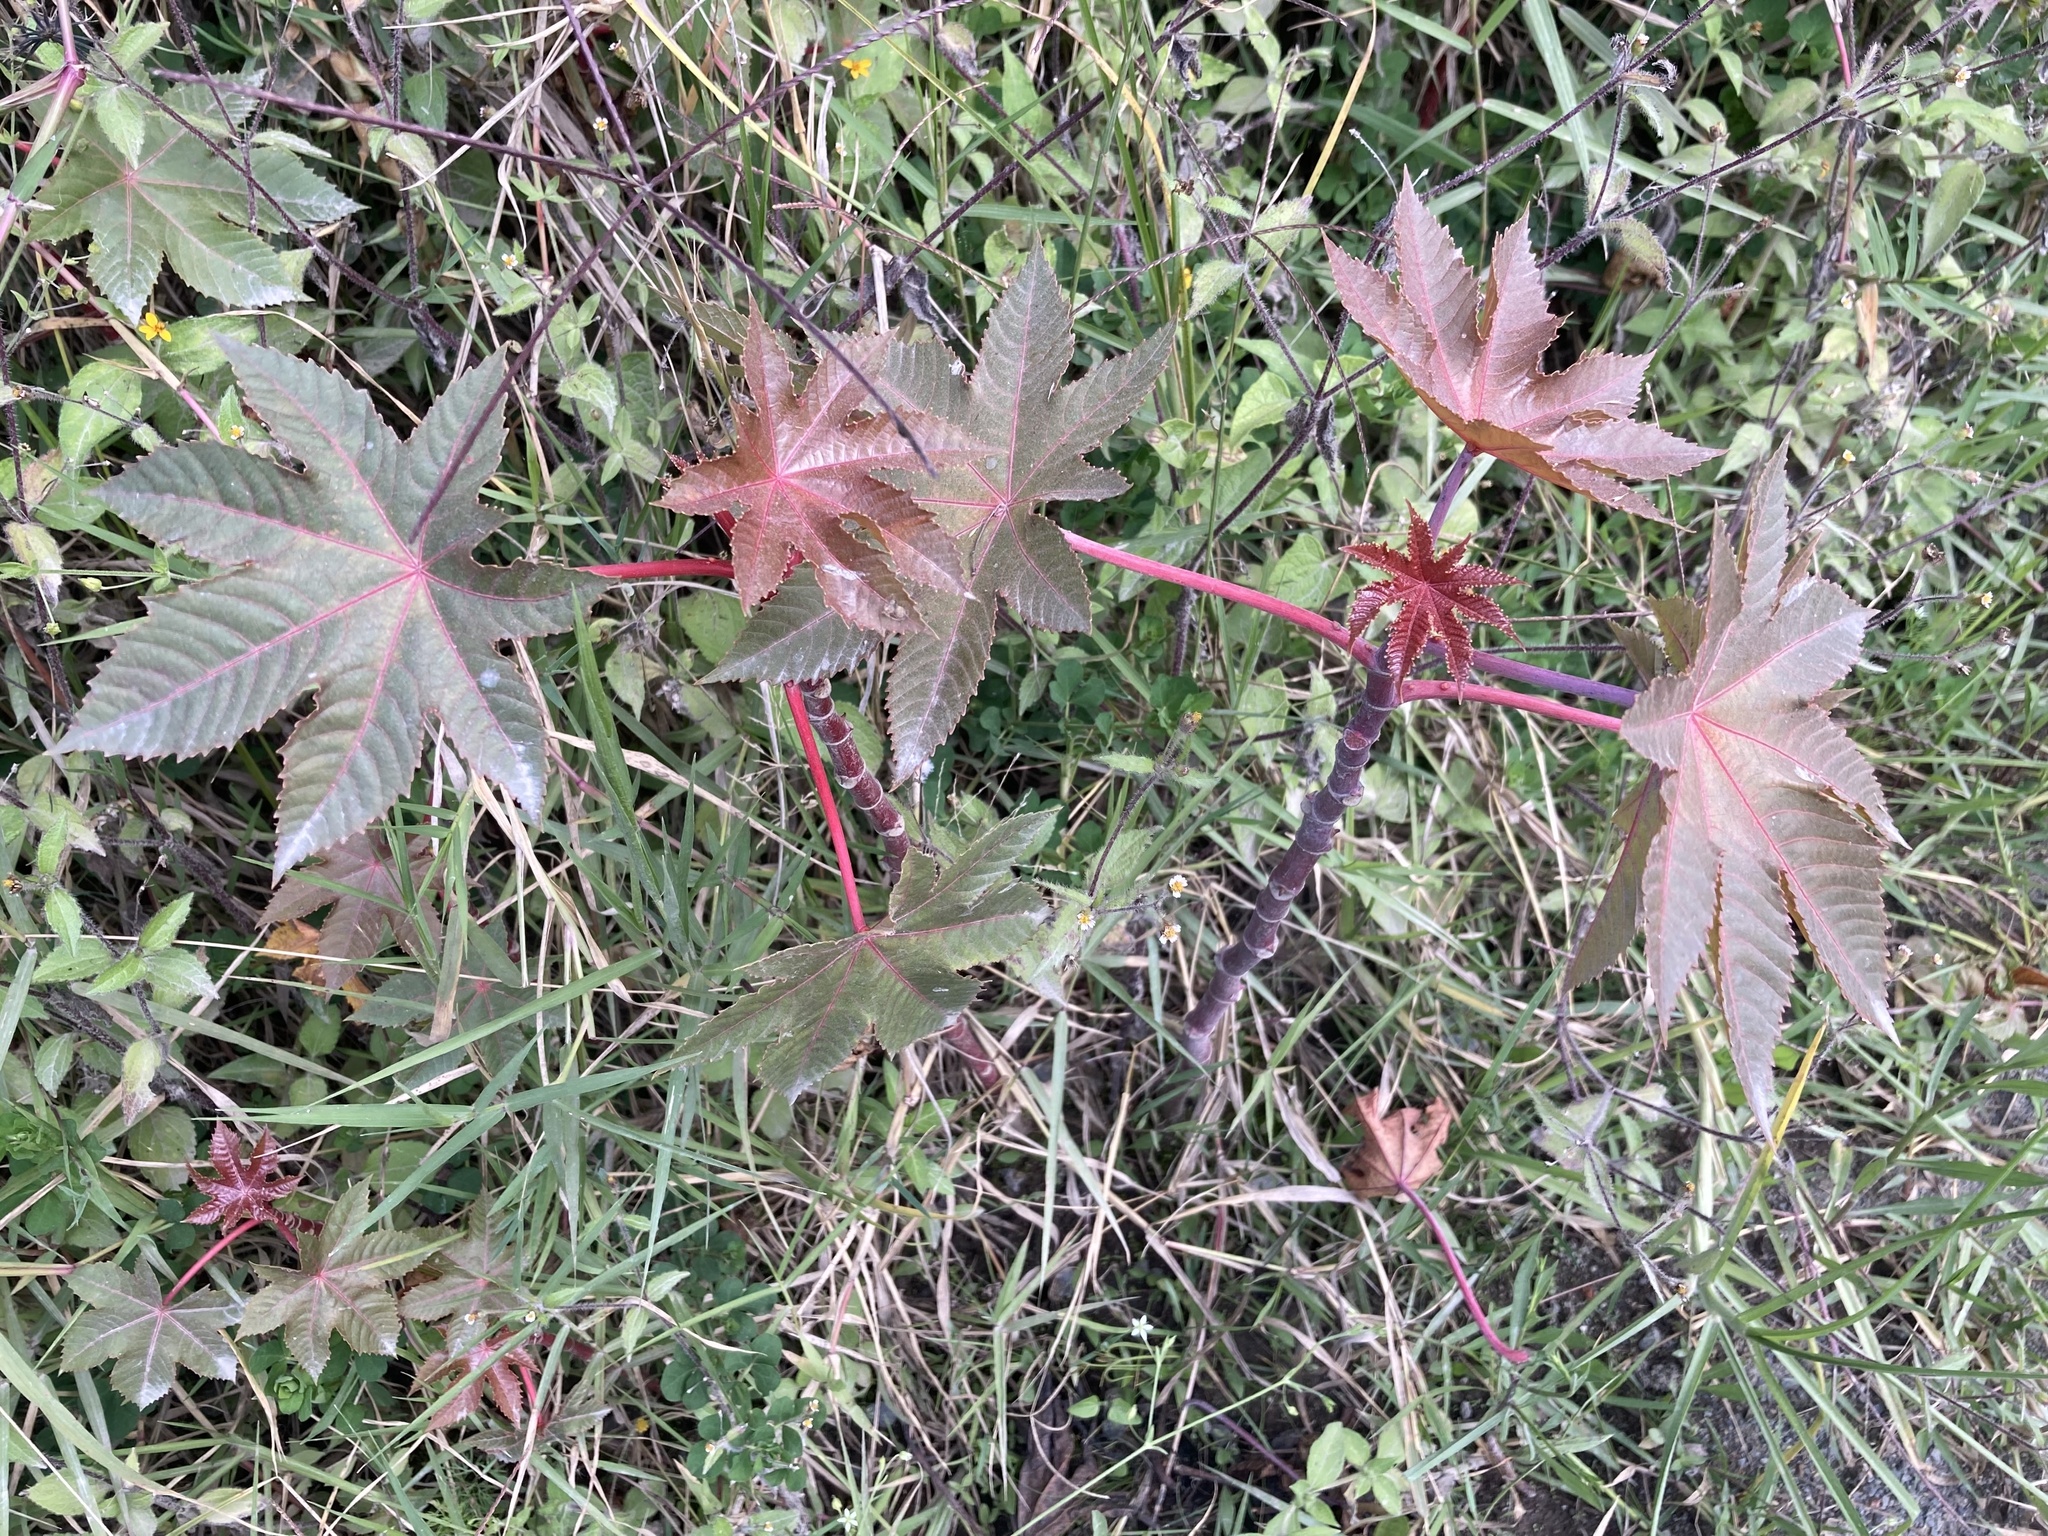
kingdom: Plantae
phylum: Tracheophyta
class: Magnoliopsida
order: Malpighiales
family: Euphorbiaceae
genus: Ricinus
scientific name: Ricinus communis
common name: Castor-oil-plant
